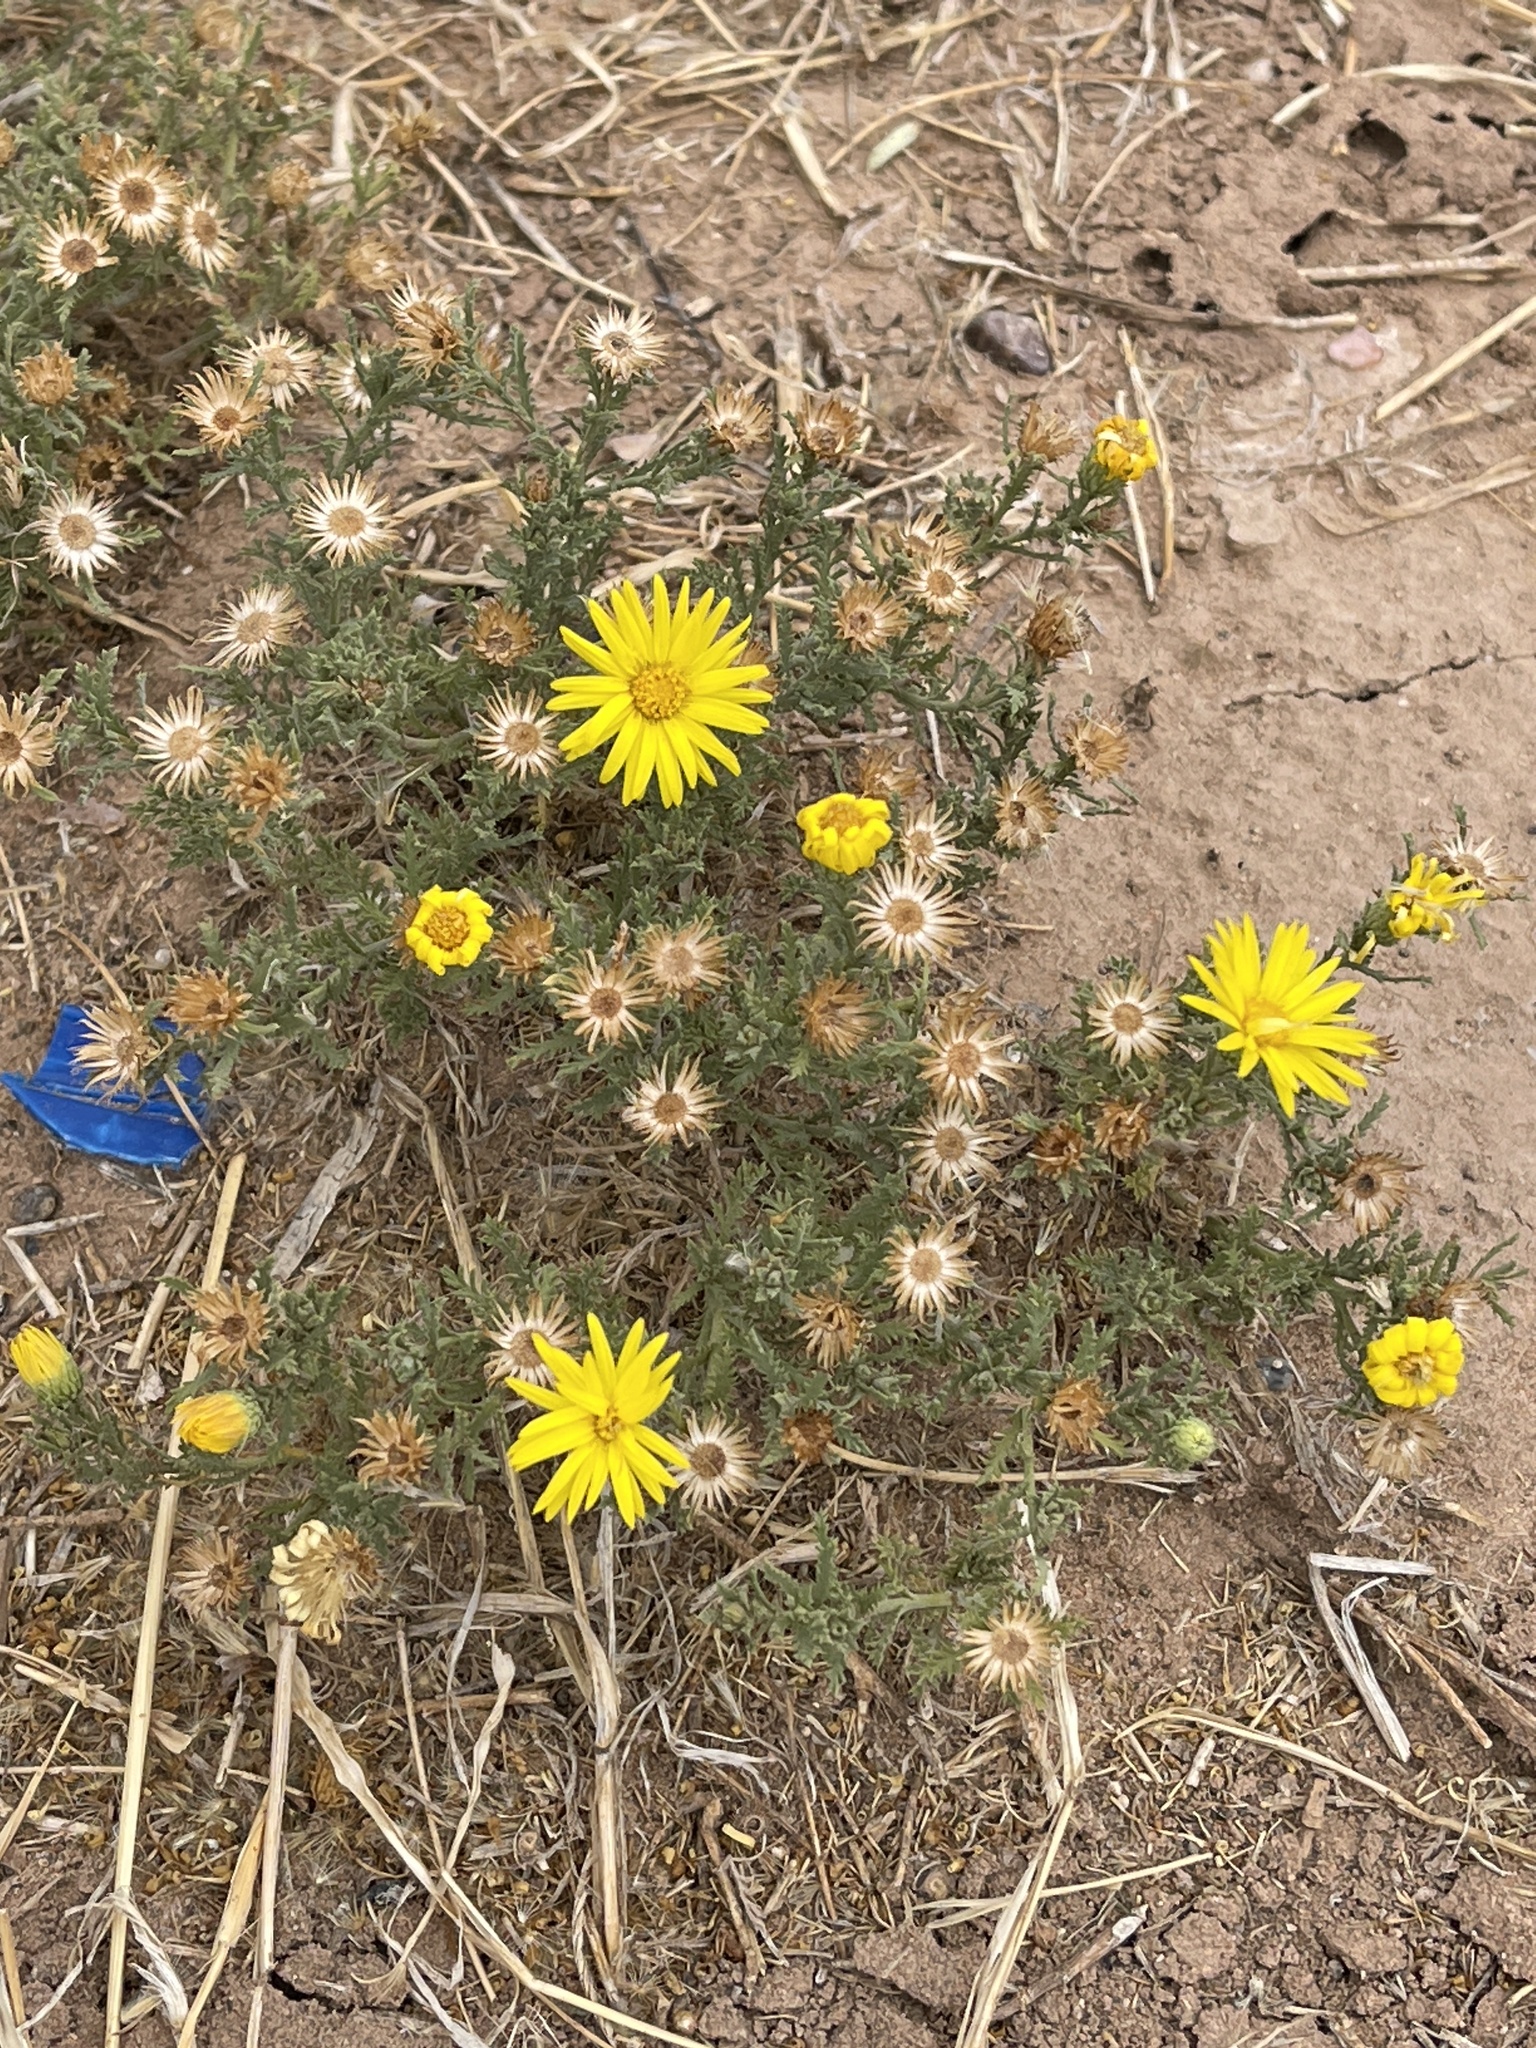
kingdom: Plantae
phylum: Tracheophyta
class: Magnoliopsida
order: Asterales
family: Asteraceae
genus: Xanthisma
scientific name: Xanthisma spinulosum
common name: Spiny goldenweed
